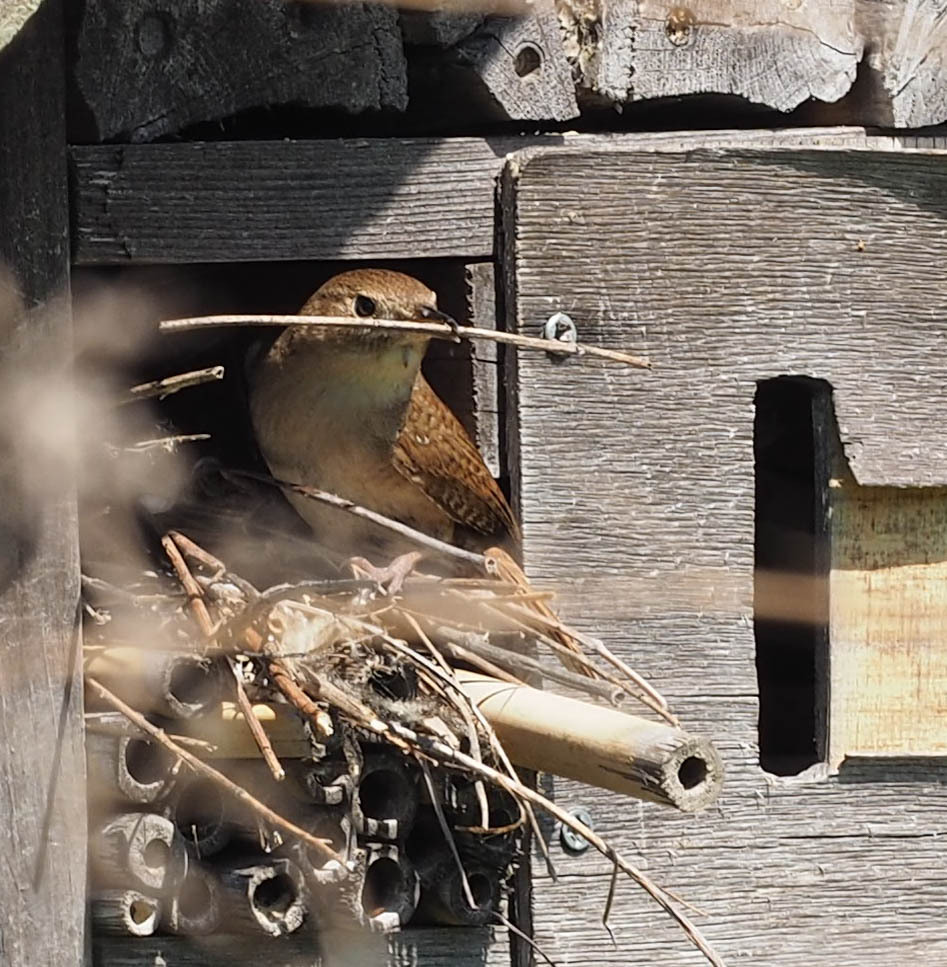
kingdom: Animalia
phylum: Chordata
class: Aves
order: Passeriformes
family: Troglodytidae
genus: Troglodytes
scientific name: Troglodytes aedon
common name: House wren
